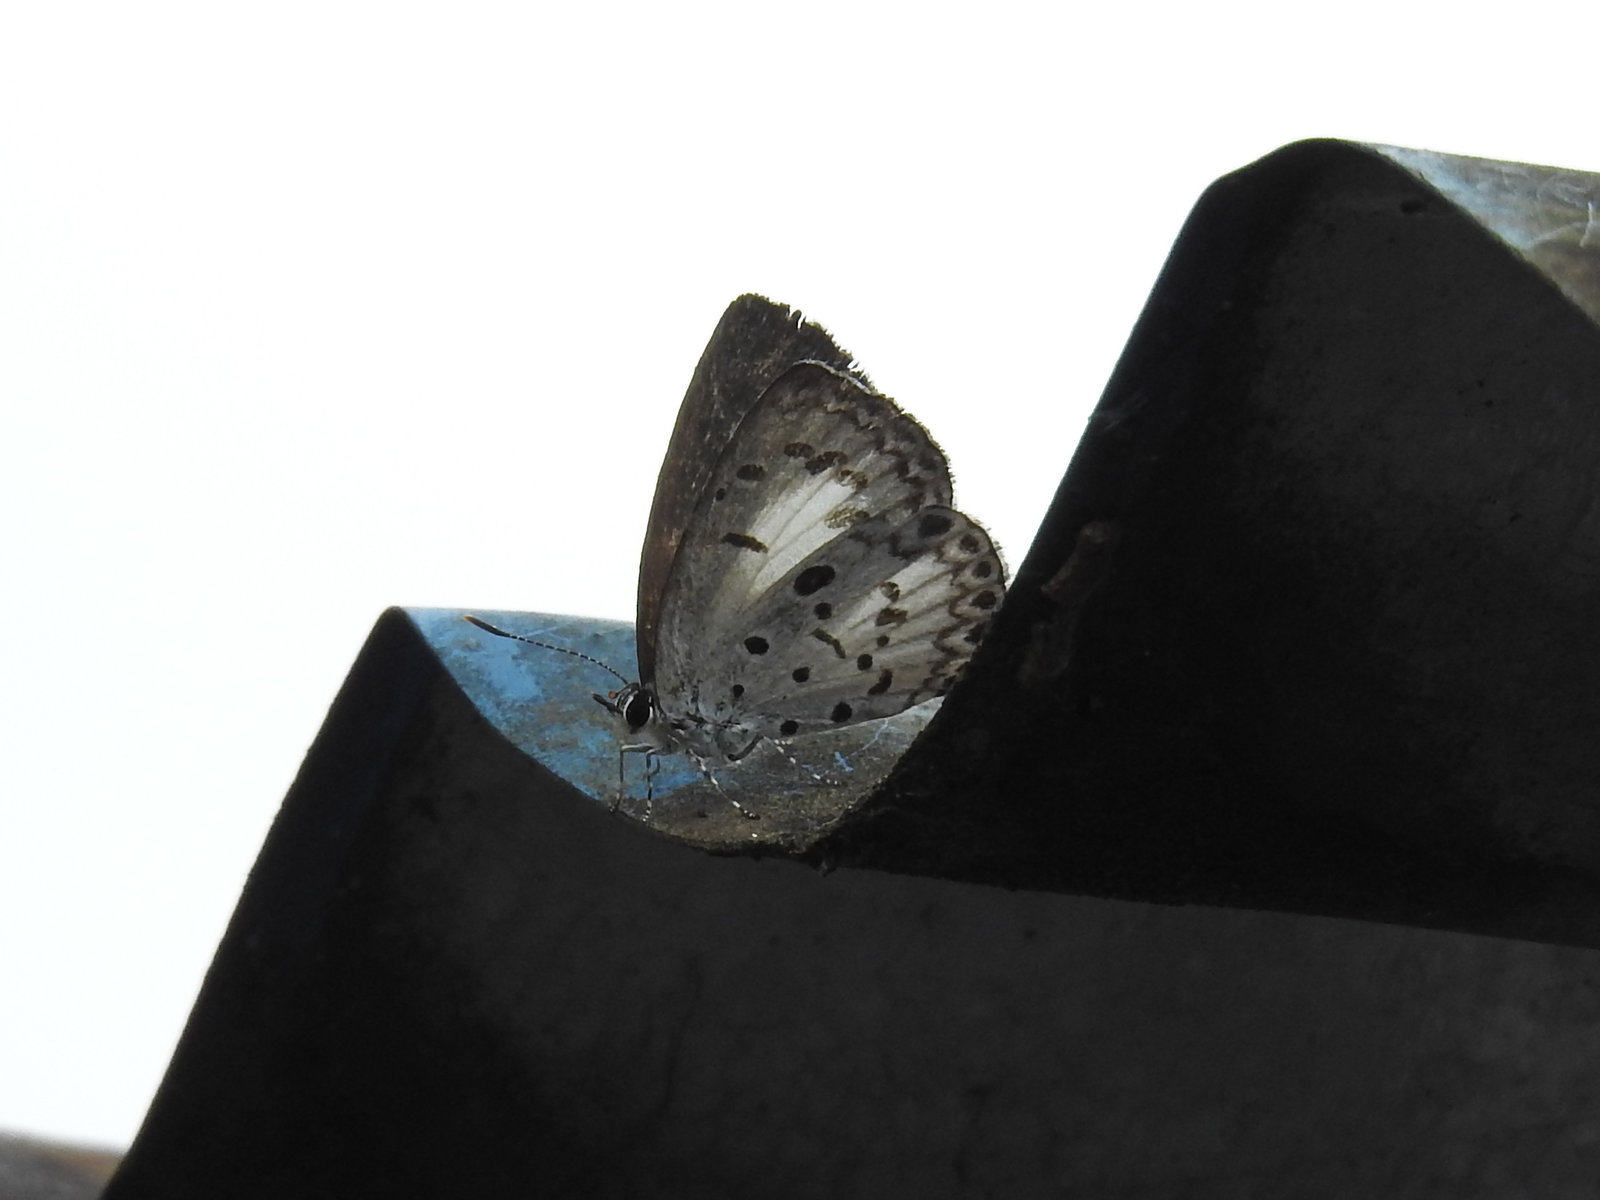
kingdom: Animalia
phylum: Arthropoda
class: Insecta
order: Lepidoptera
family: Lycaenidae
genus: Acytolepis
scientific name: Acytolepis puspa
